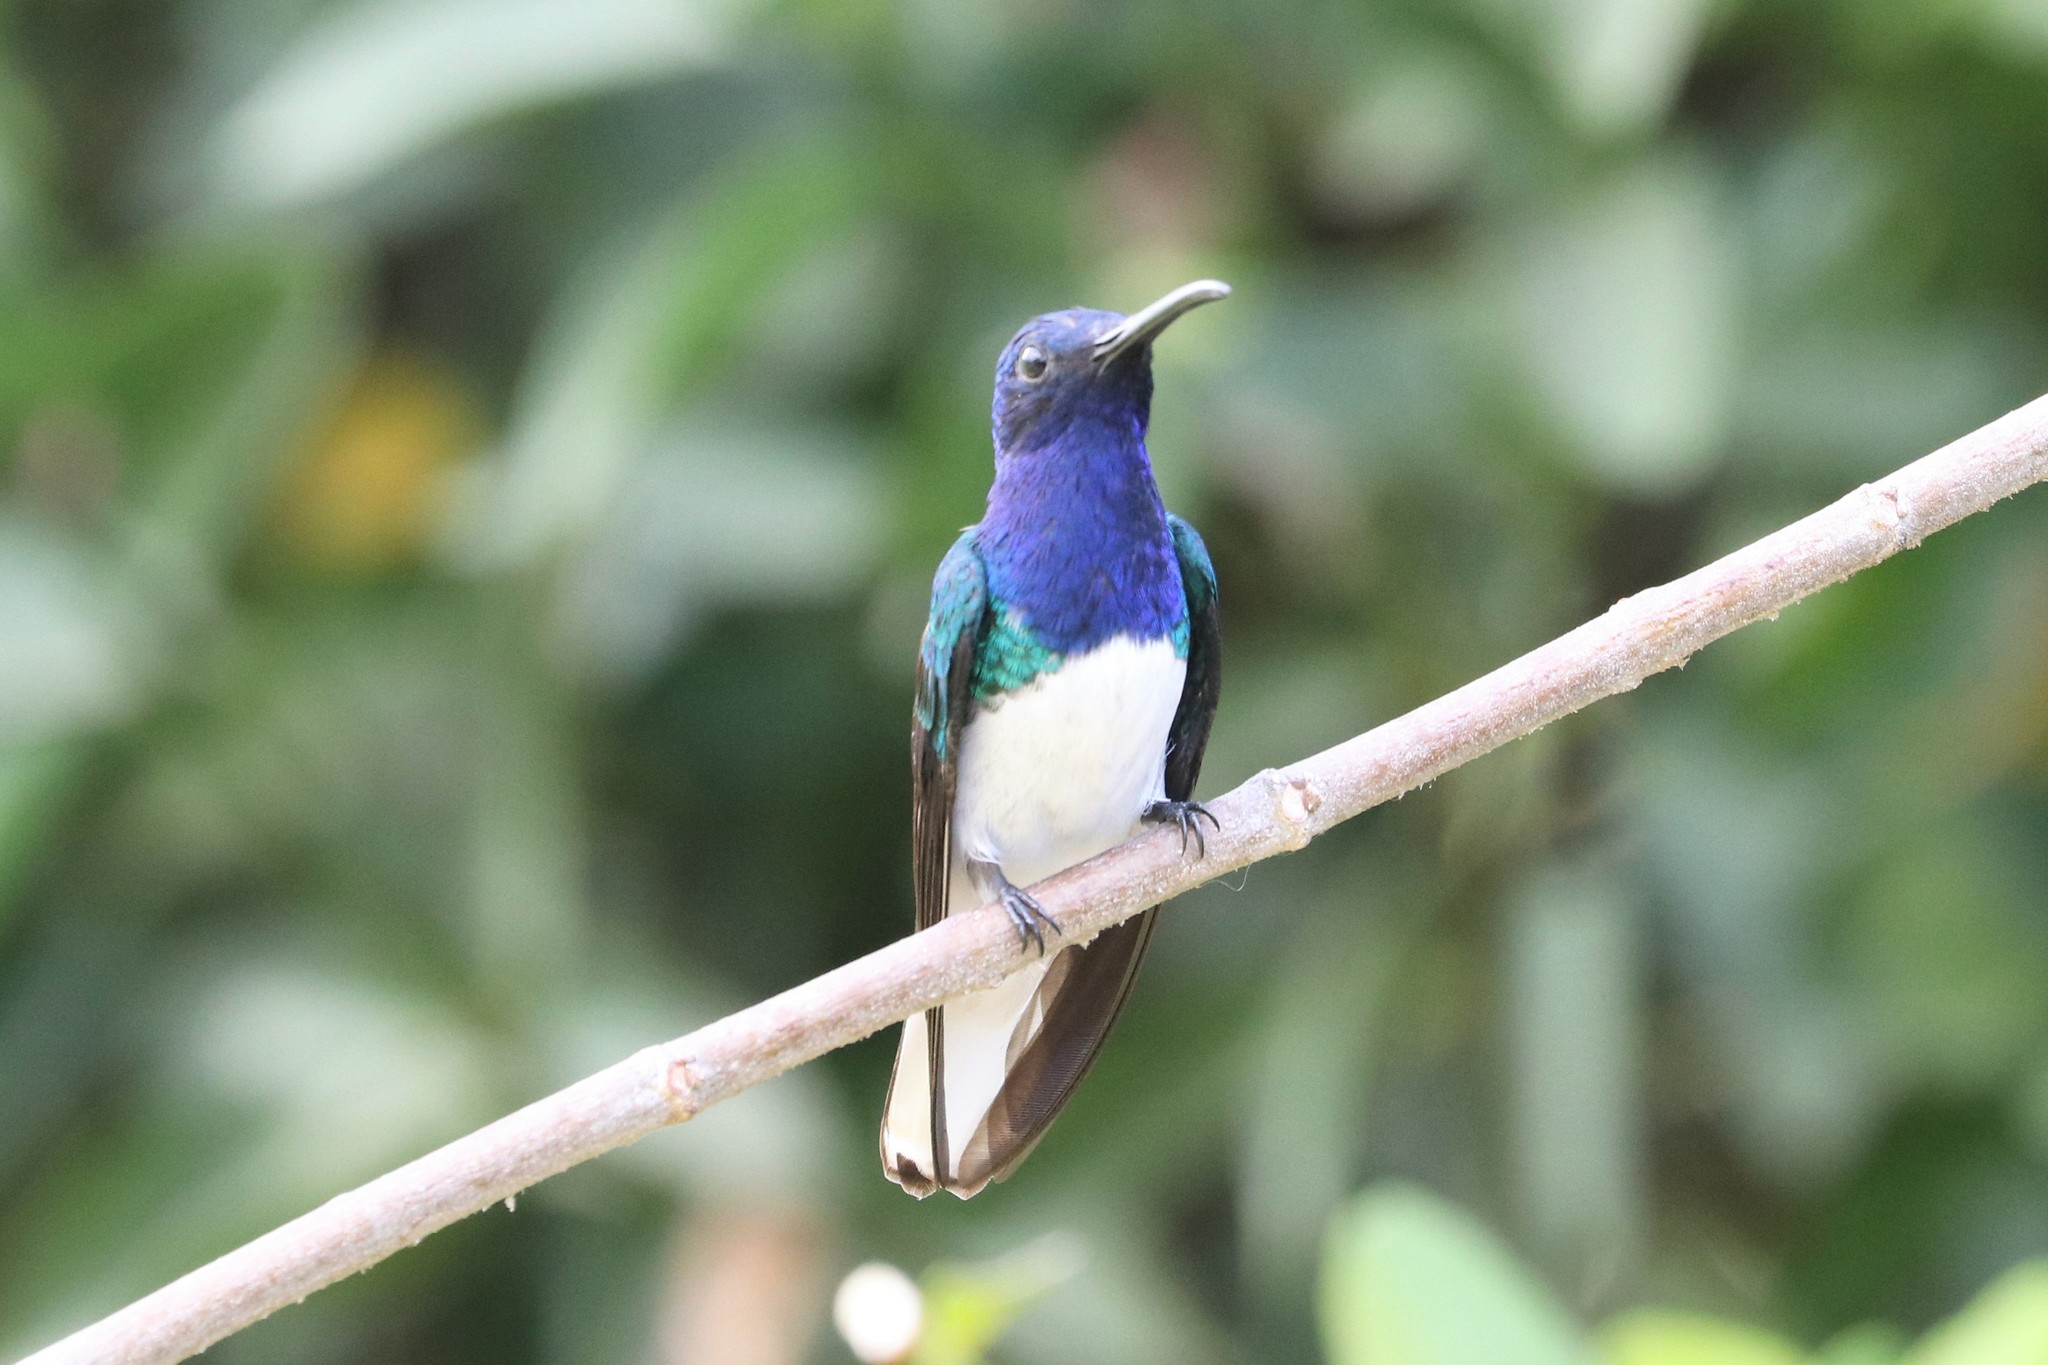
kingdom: Animalia
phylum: Chordata
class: Aves
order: Apodiformes
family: Trochilidae
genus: Florisuga
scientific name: Florisuga mellivora
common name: White-necked jacobin
